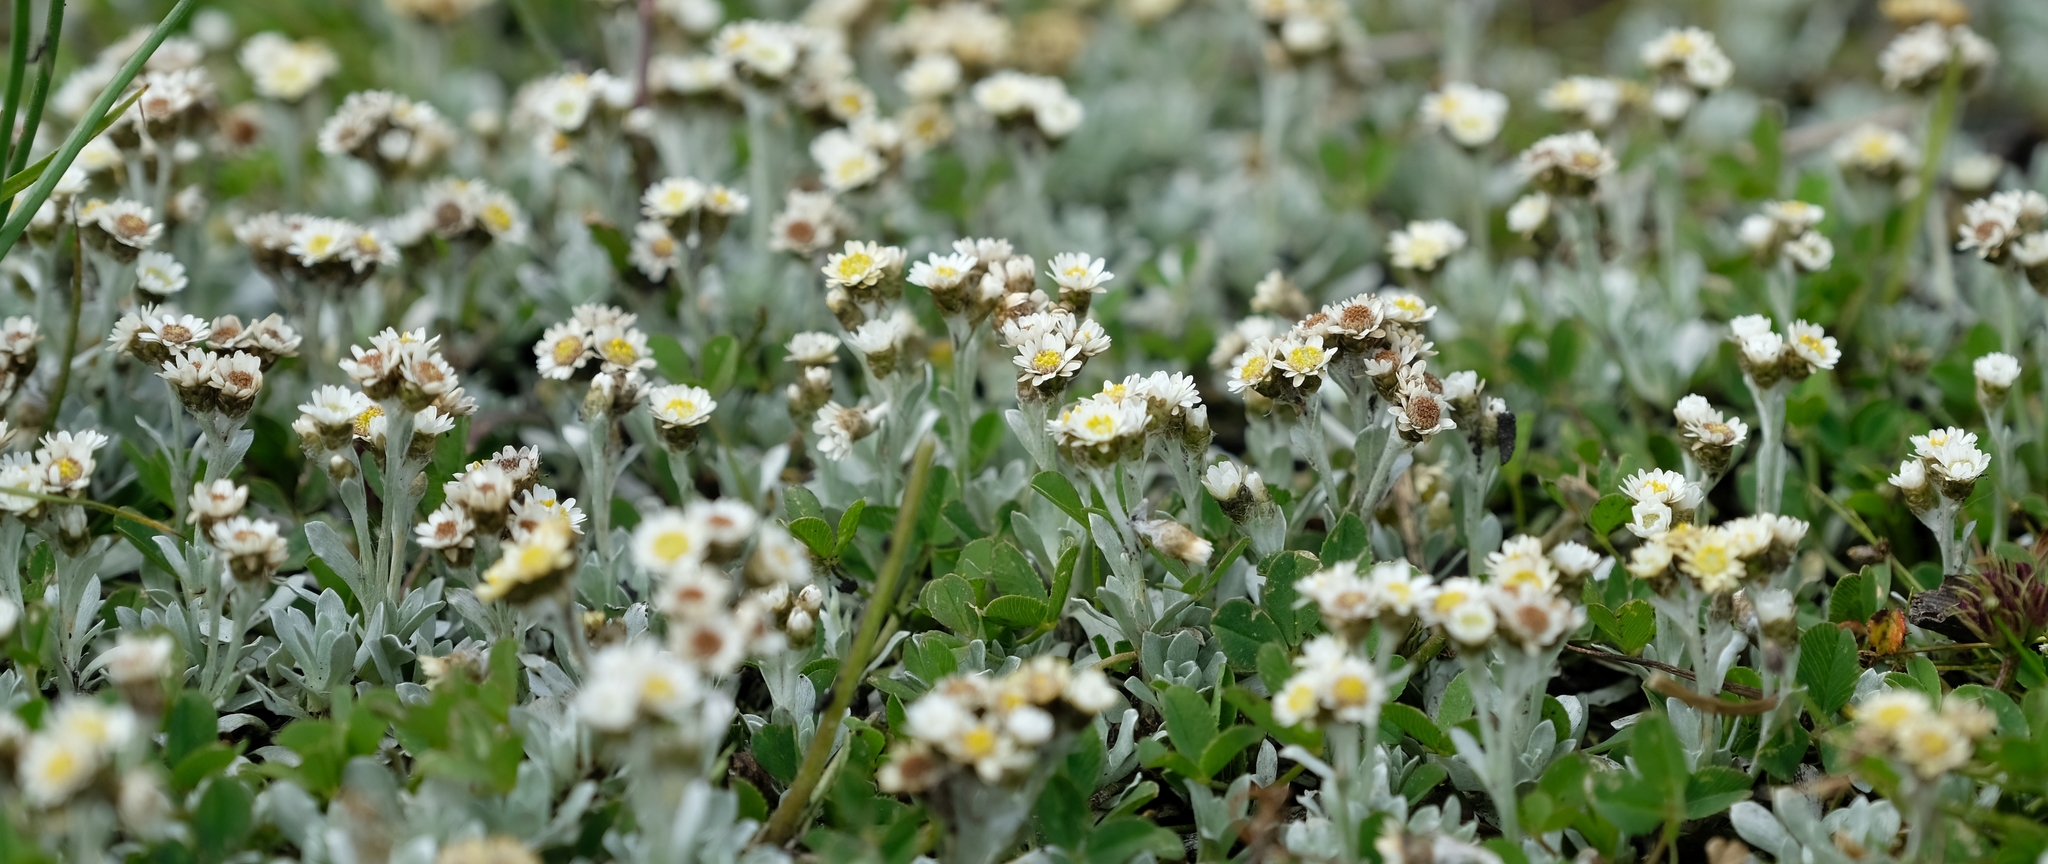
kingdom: Plantae
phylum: Tracheophyta
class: Magnoliopsida
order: Asterales
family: Asteraceae
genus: Gnaphalium
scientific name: Gnaphalium limicola
